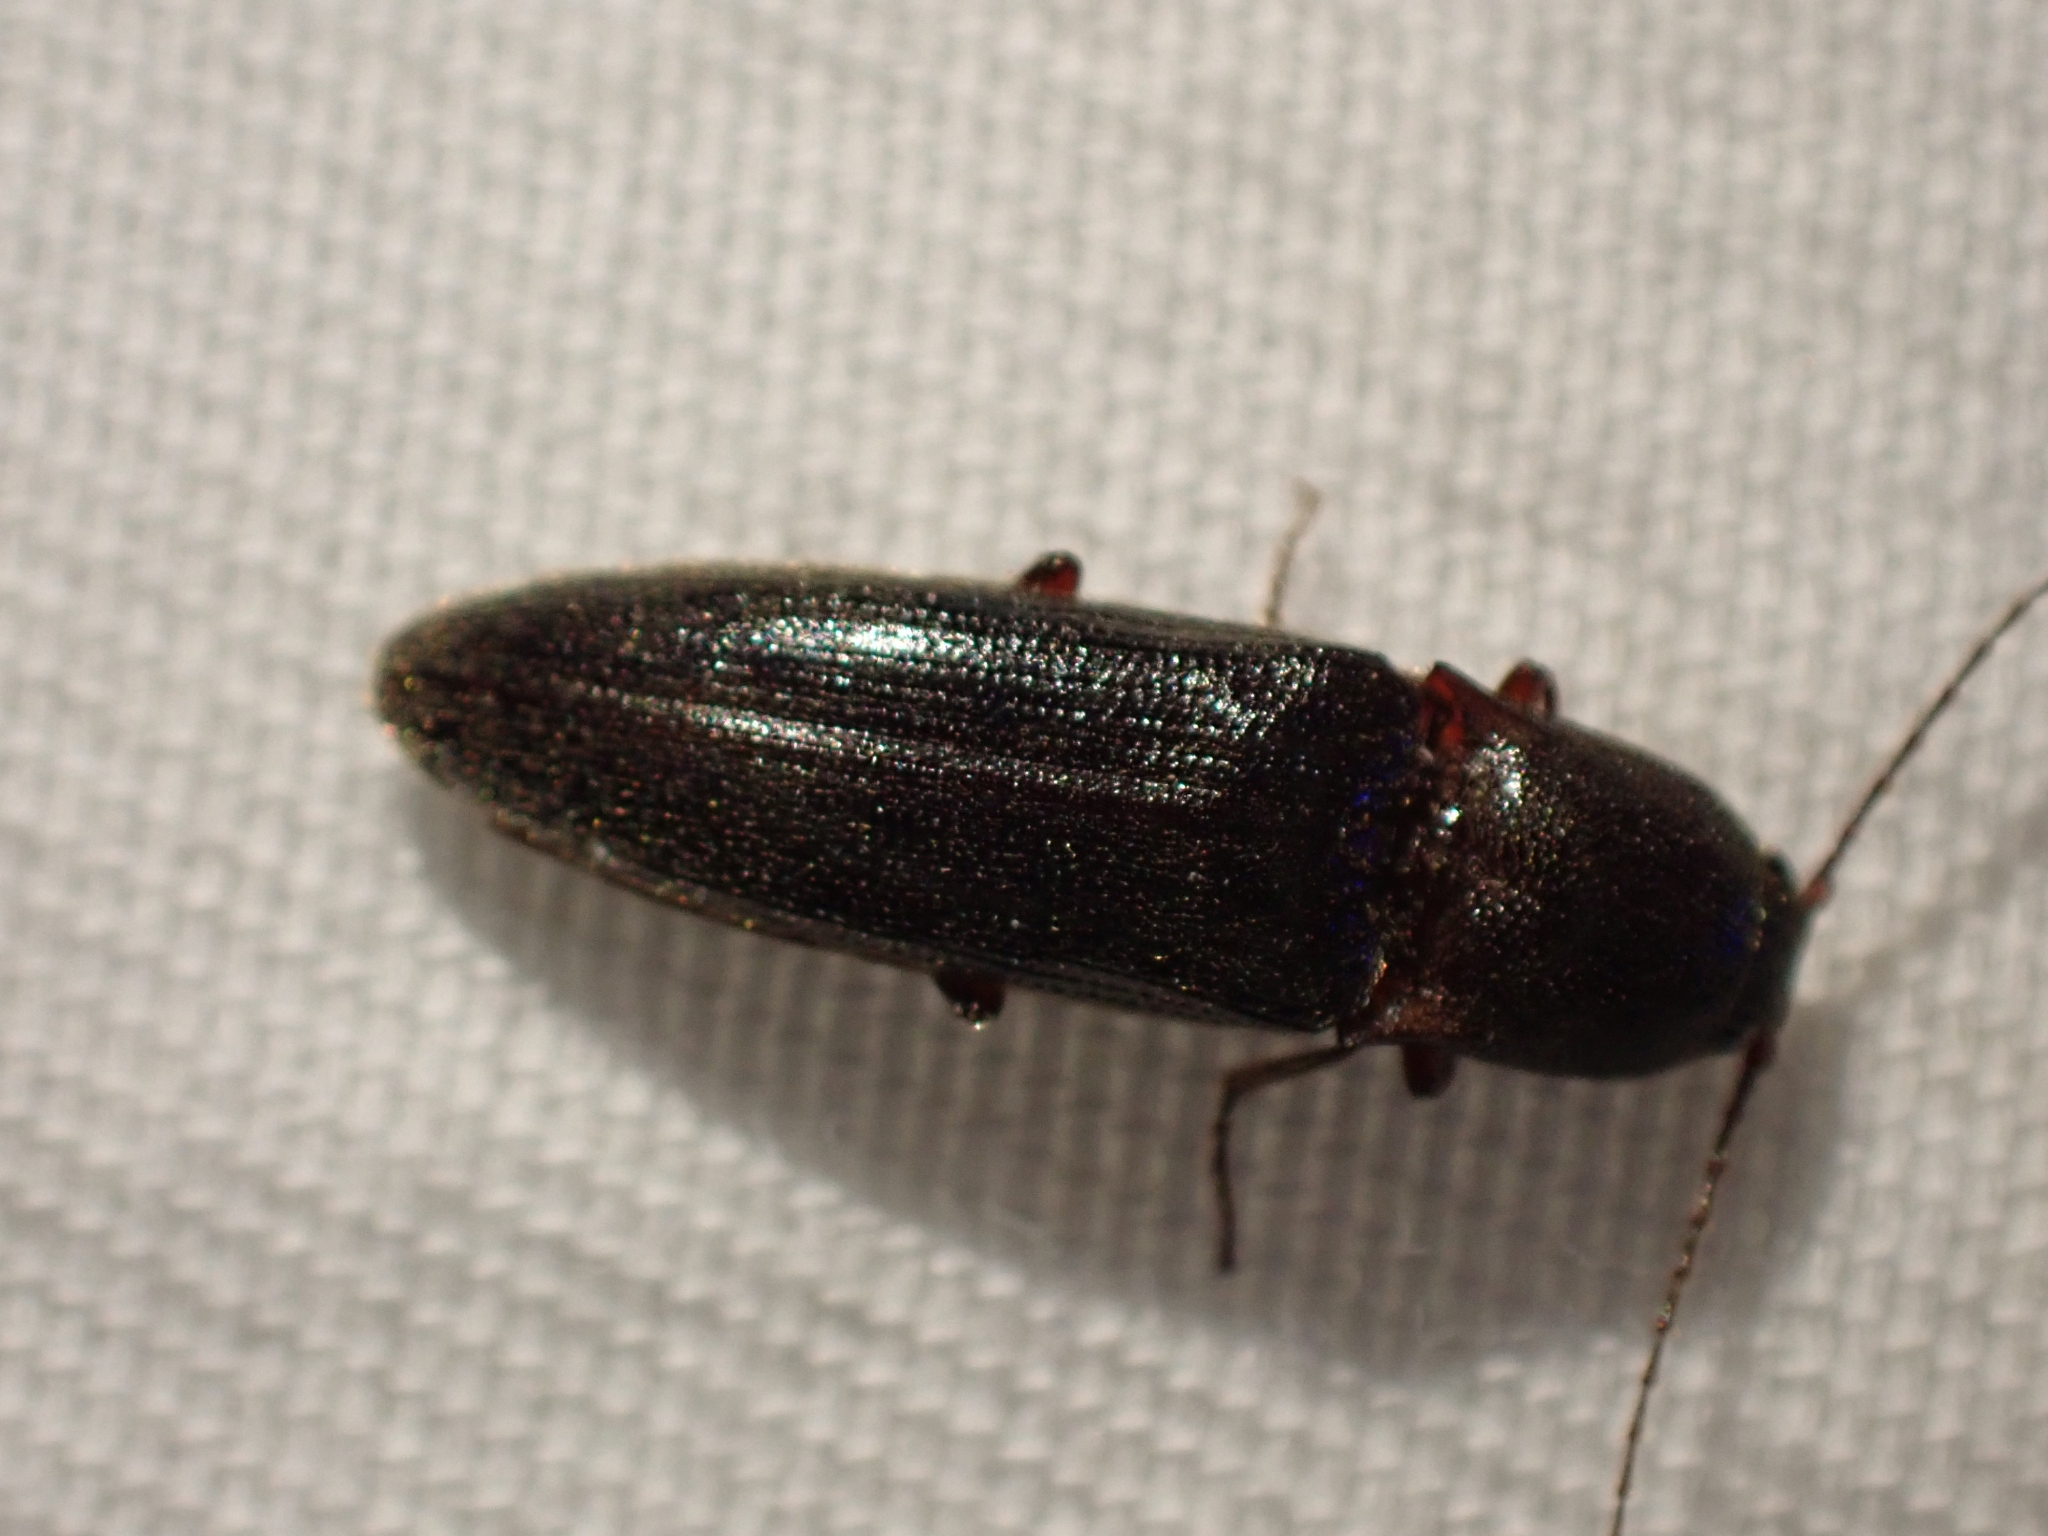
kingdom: Animalia
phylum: Arthropoda
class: Insecta
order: Coleoptera
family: Elateridae
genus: Melanotus
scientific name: Melanotus longulus
